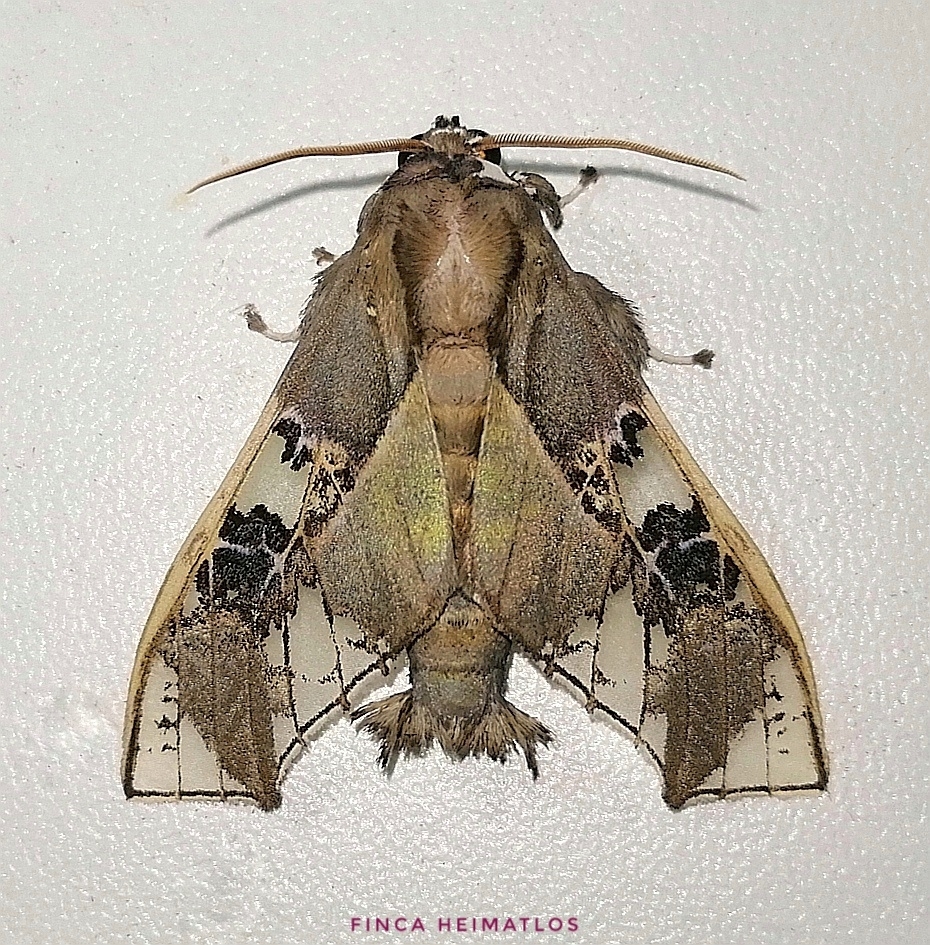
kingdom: Animalia
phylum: Arthropoda
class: Insecta
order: Lepidoptera
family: Erebidae
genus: Parathyris
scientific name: Parathyris cedonulli
